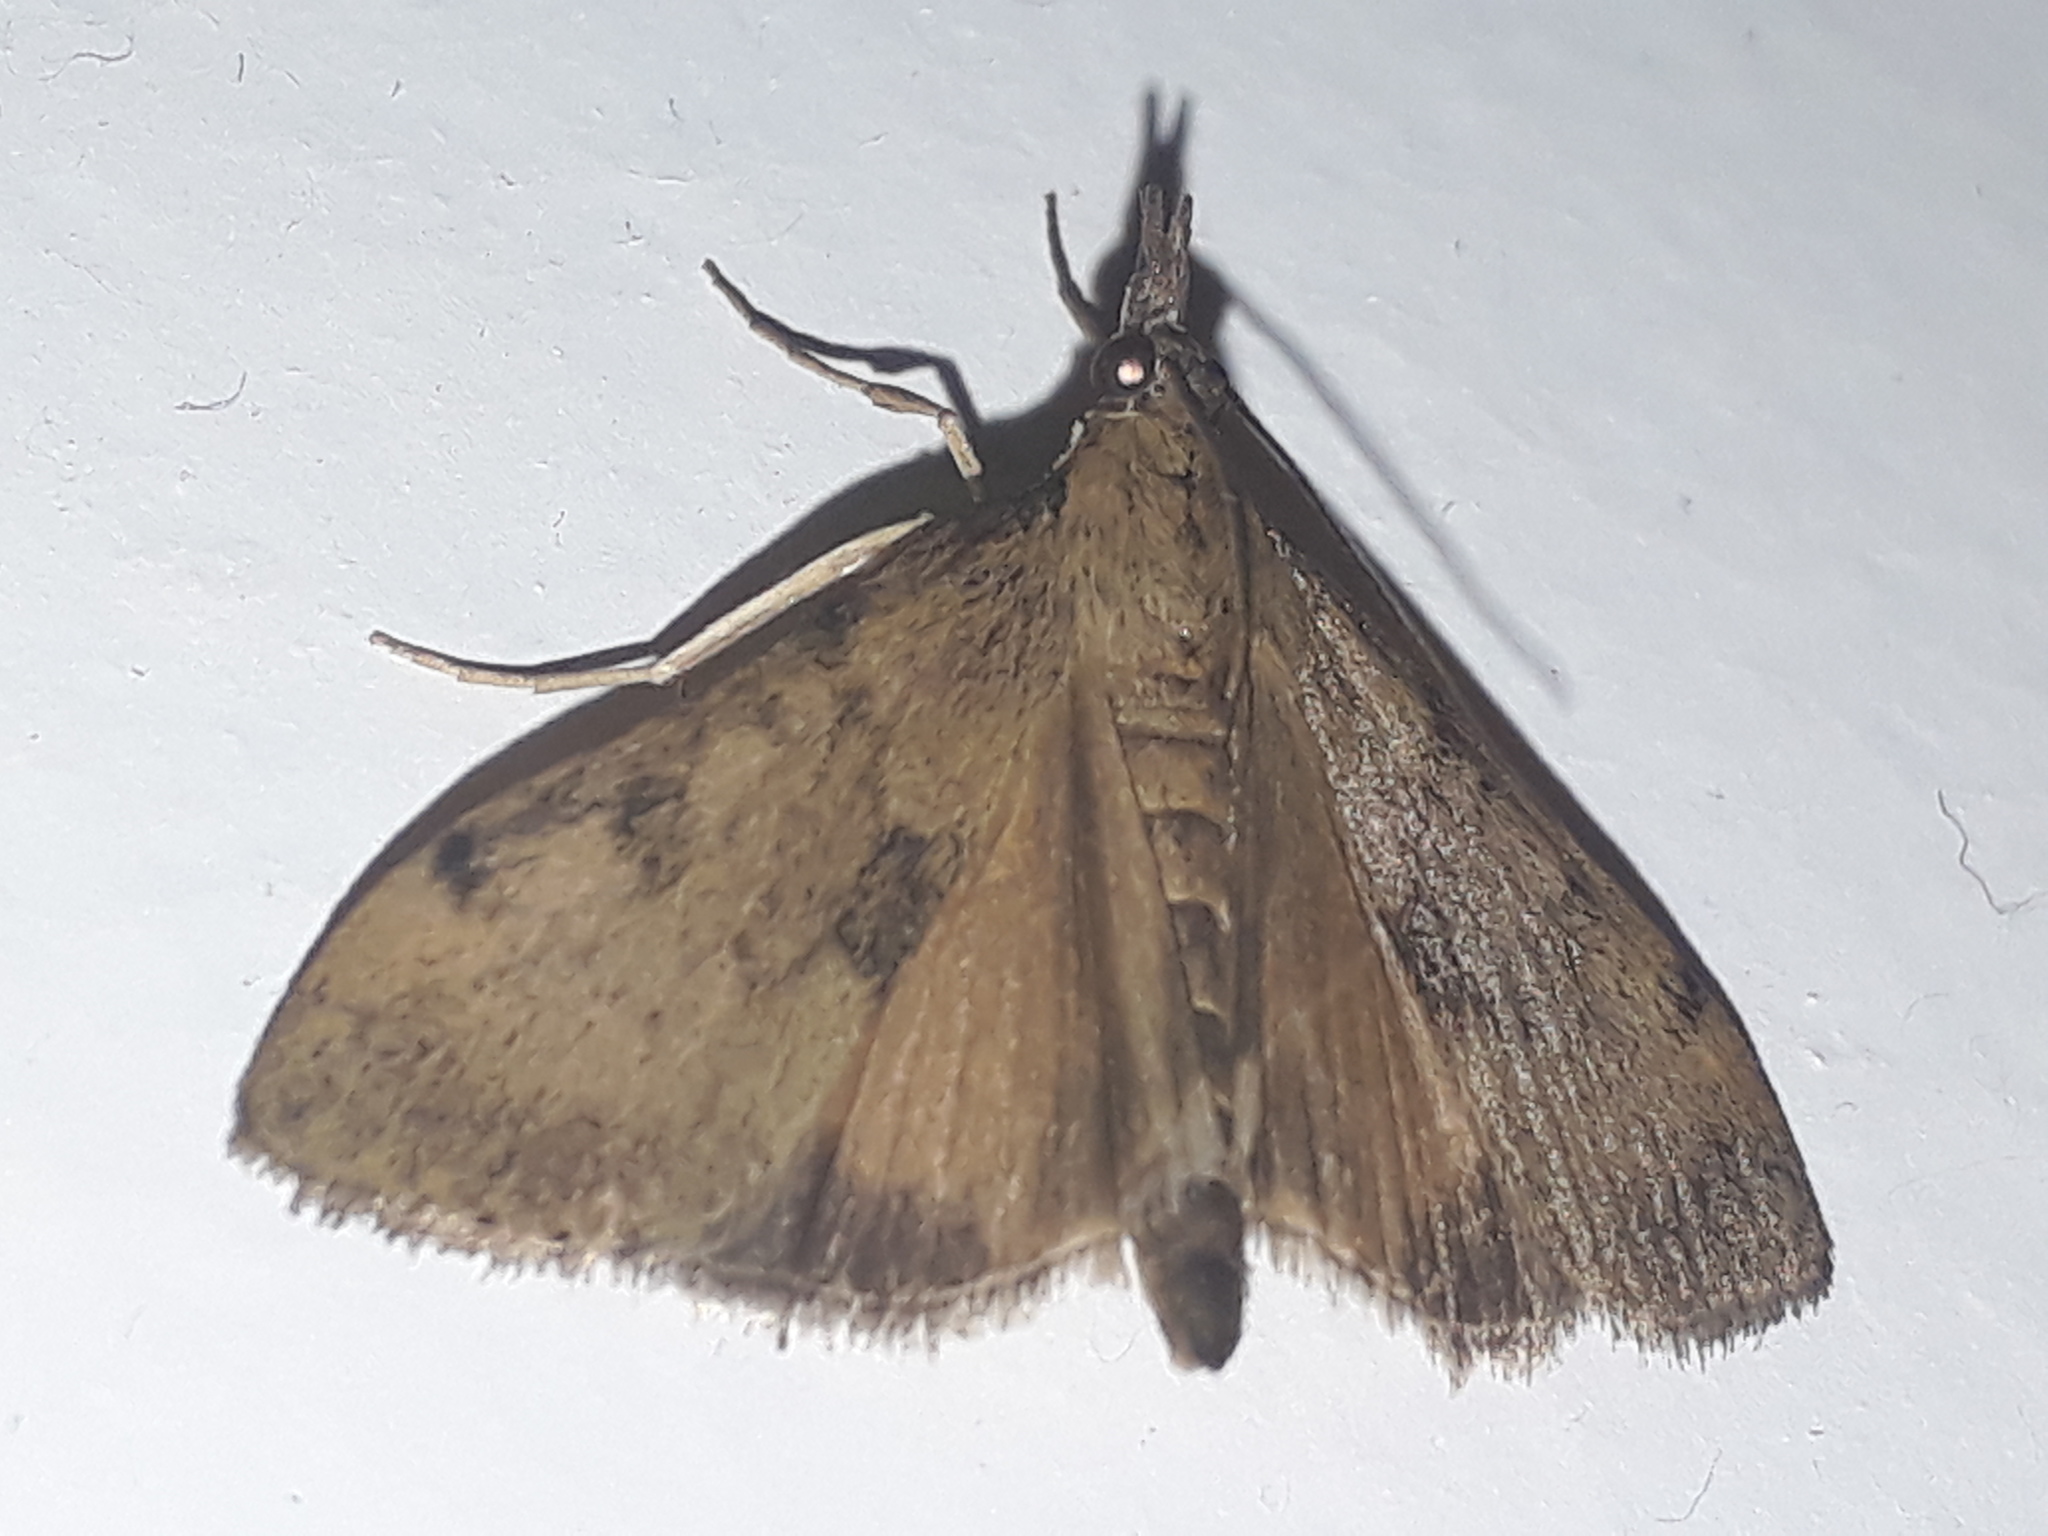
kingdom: Animalia
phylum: Arthropoda
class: Insecta
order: Lepidoptera
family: Crambidae
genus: Uresiphita
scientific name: Uresiphita
